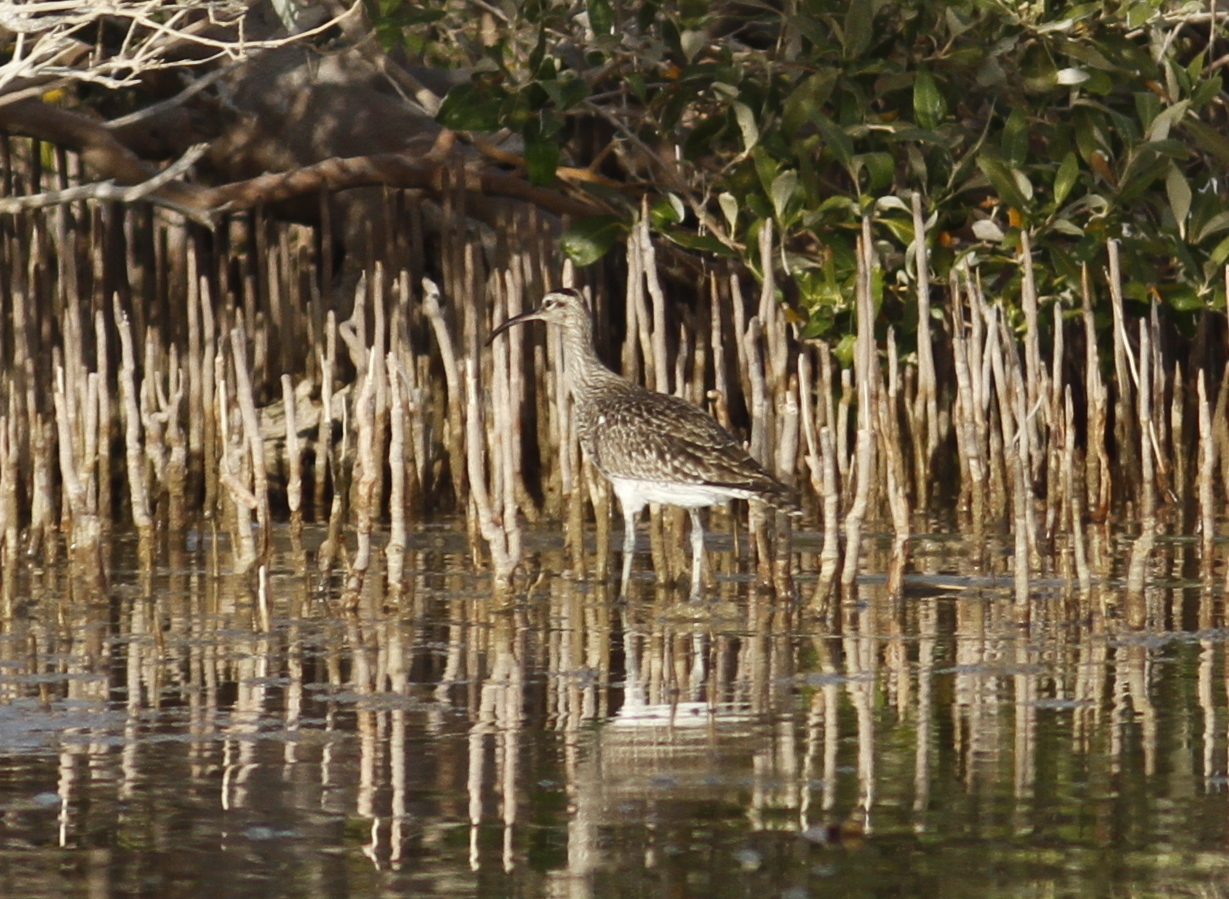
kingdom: Animalia
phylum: Chordata
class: Aves
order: Charadriiformes
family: Scolopacidae
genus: Numenius
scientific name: Numenius phaeopus
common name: Whimbrel
